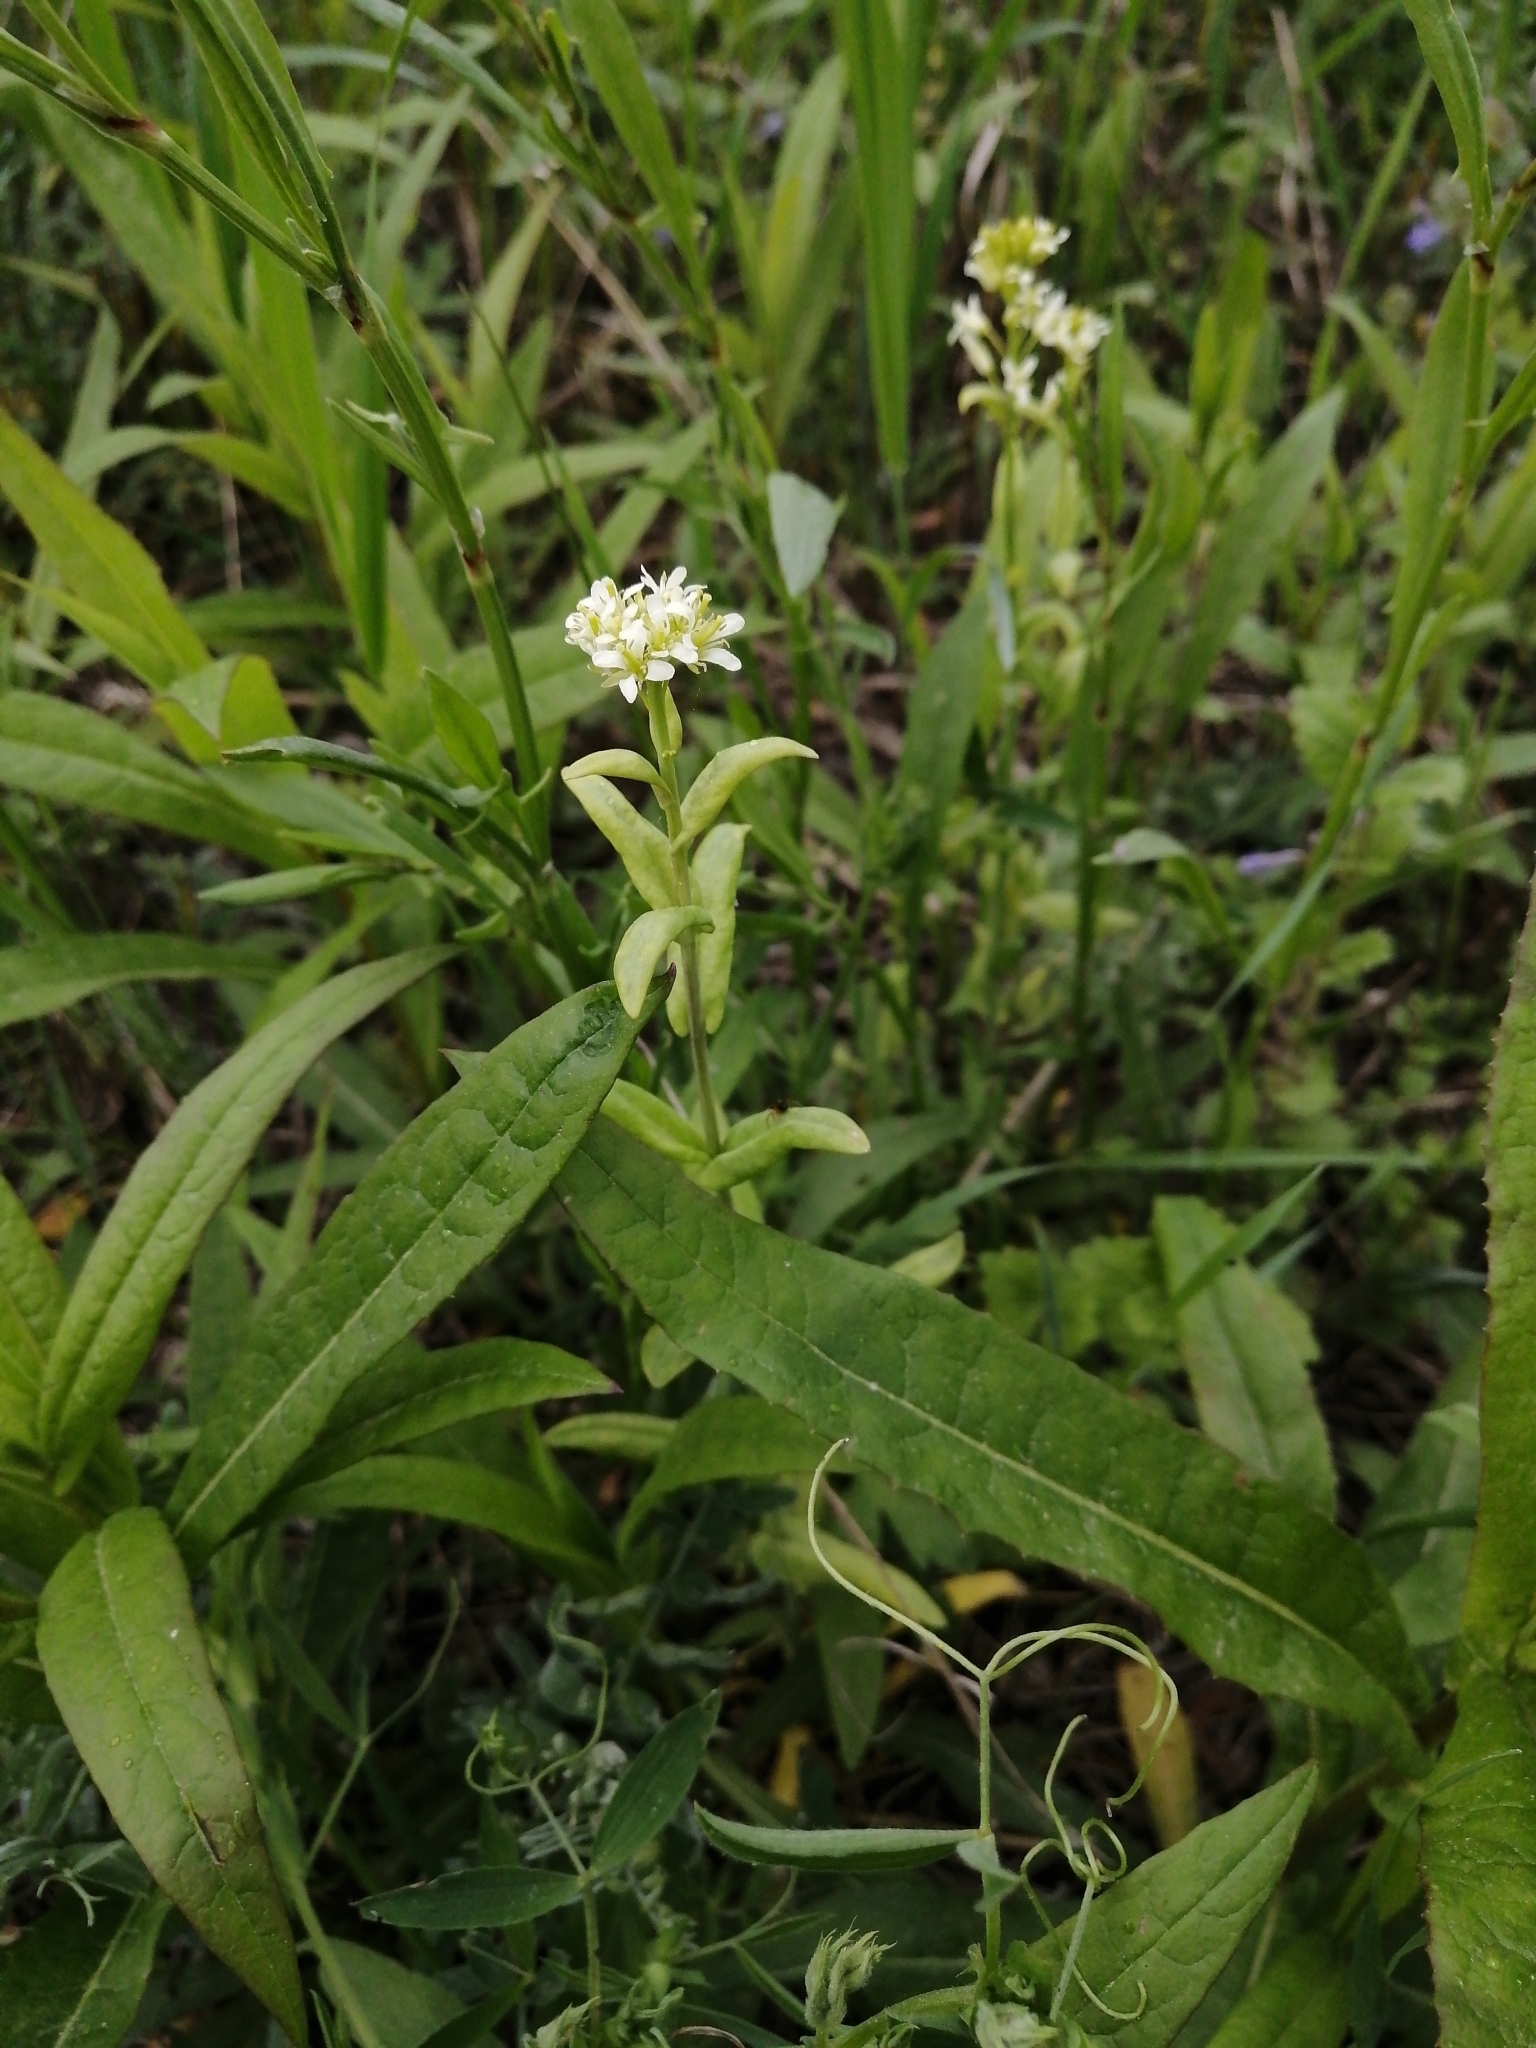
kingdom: Plantae
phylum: Tracheophyta
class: Magnoliopsida
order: Brassicales
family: Brassicaceae
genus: Turritis
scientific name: Turritis glabra
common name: Tower rockcress
